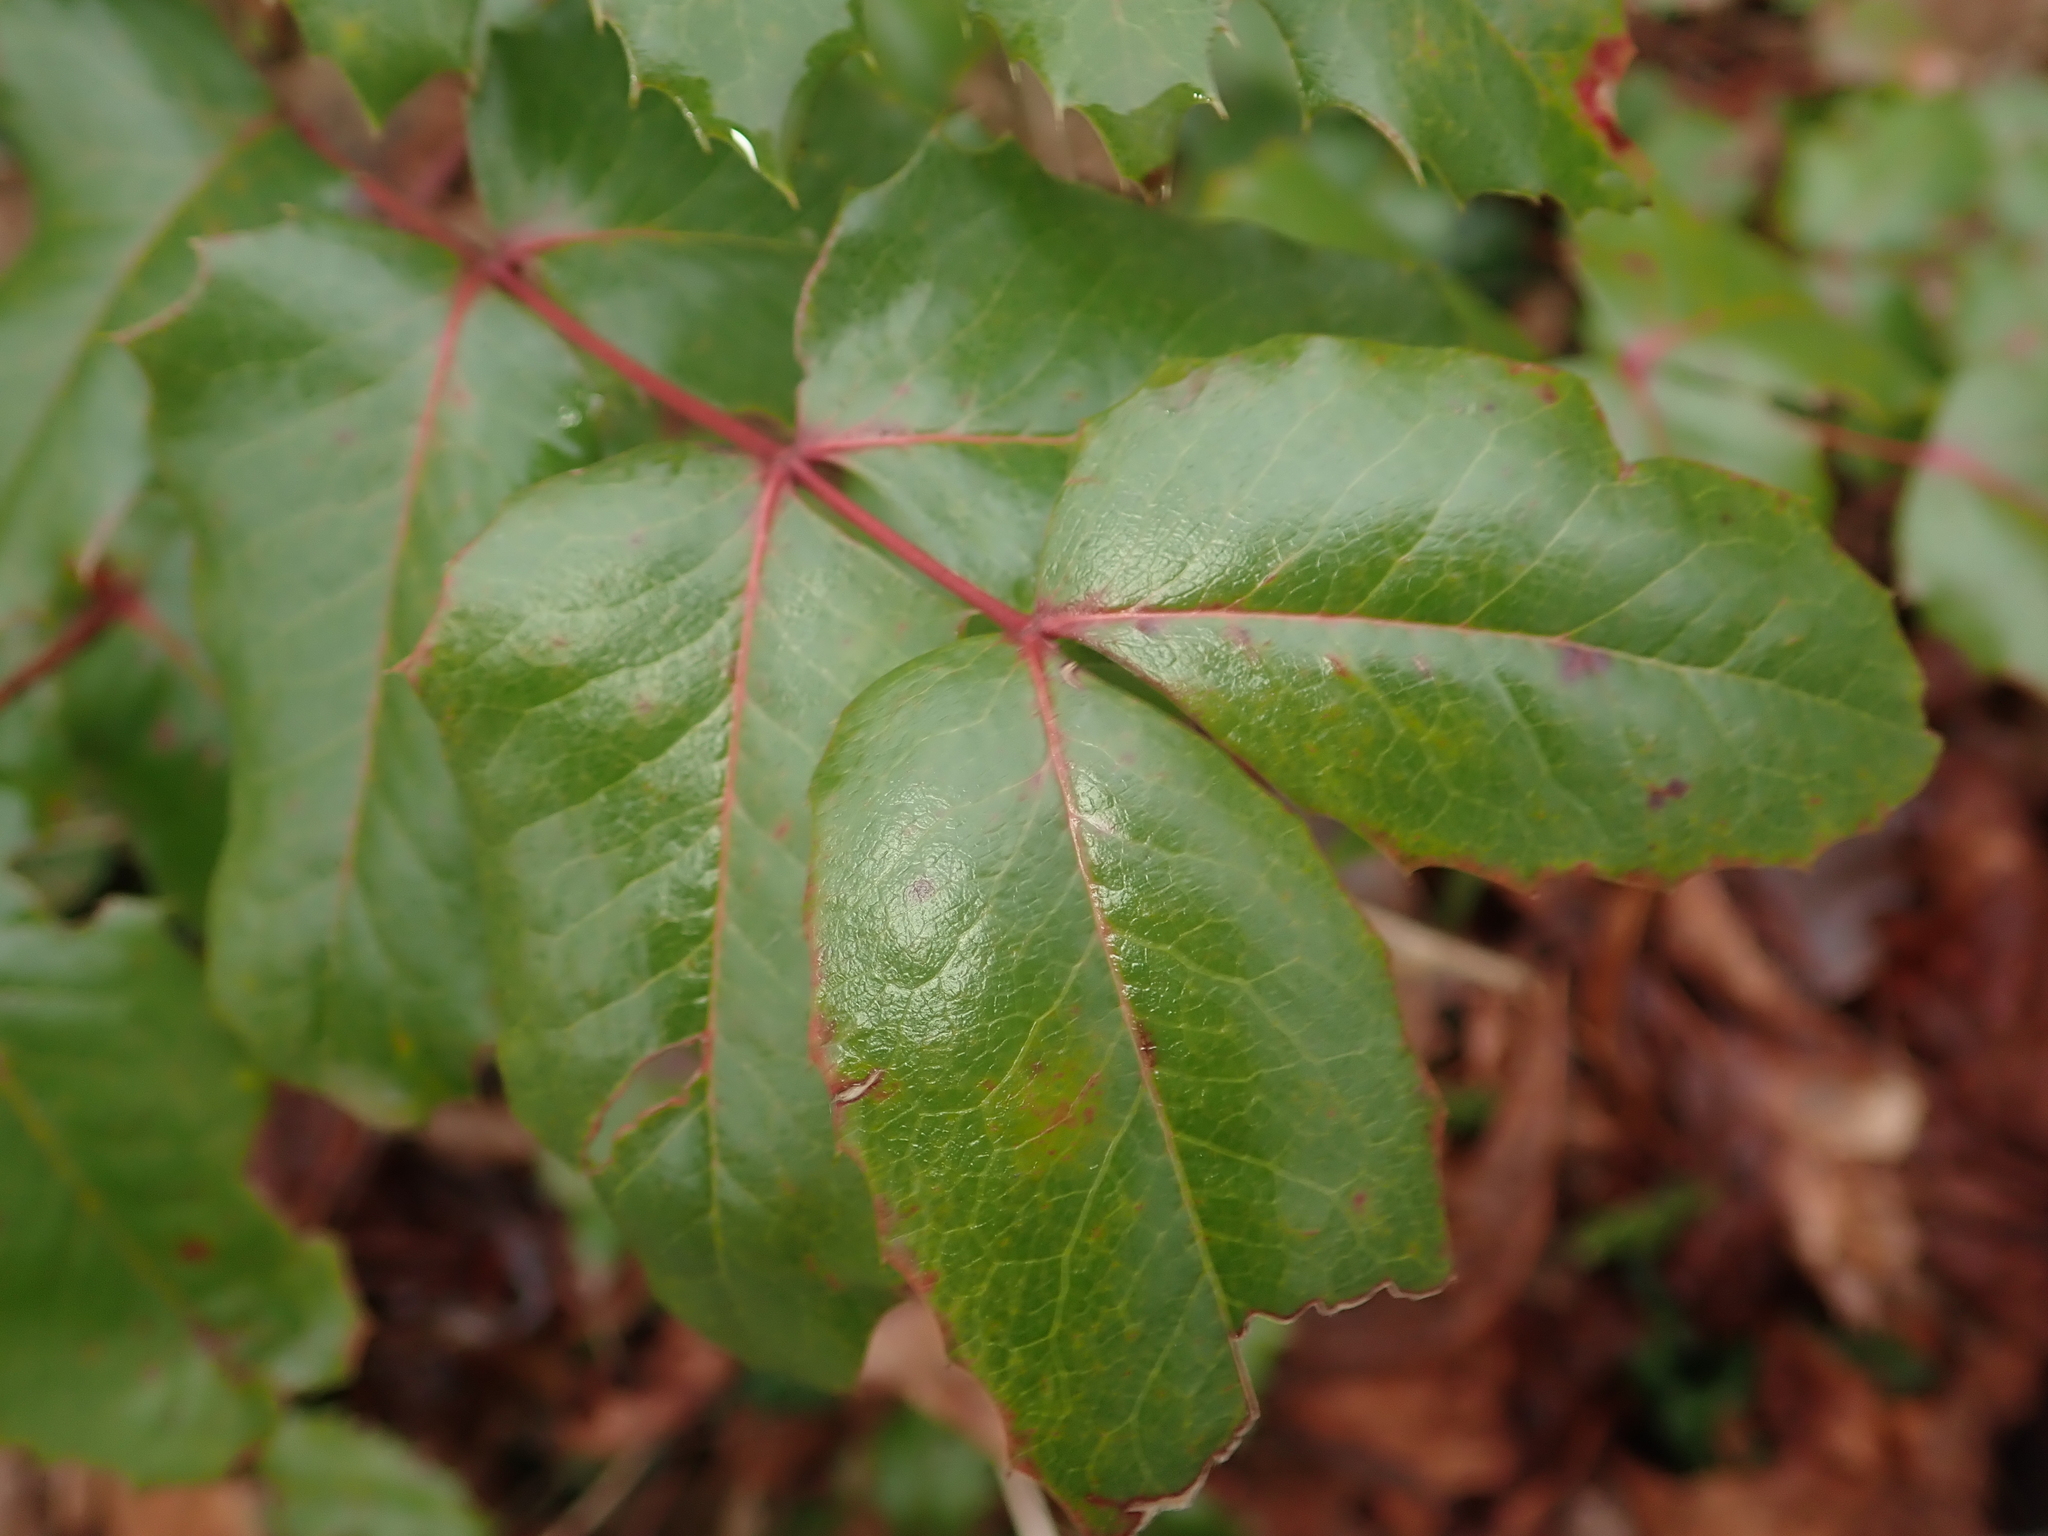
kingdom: Plantae
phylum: Tracheophyta
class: Magnoliopsida
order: Ranunculales
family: Berberidaceae
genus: Mahonia
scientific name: Mahonia aquifolium
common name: Oregon-grape
